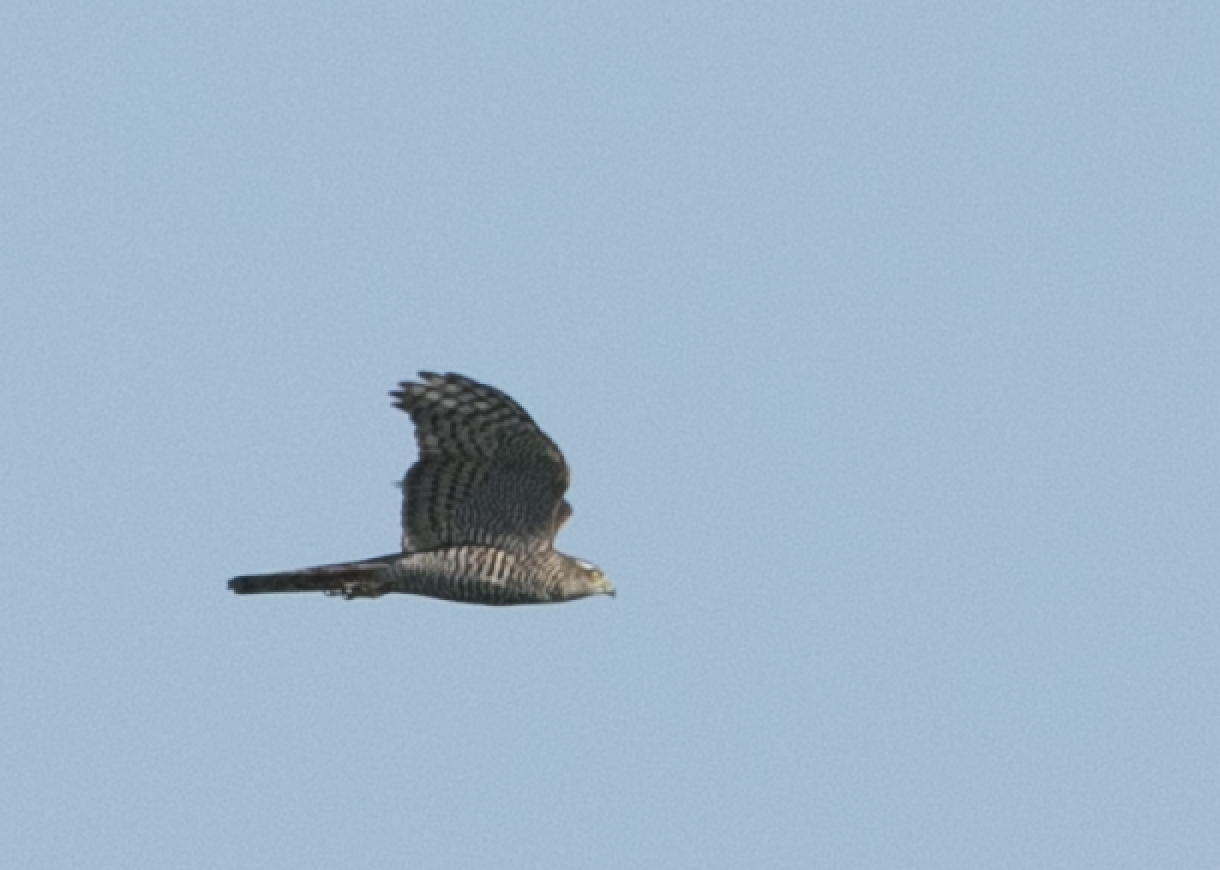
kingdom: Animalia
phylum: Chordata
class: Aves
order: Accipitriformes
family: Accipitridae
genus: Accipiter
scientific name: Accipiter nisus
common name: Eurasian sparrowhawk
